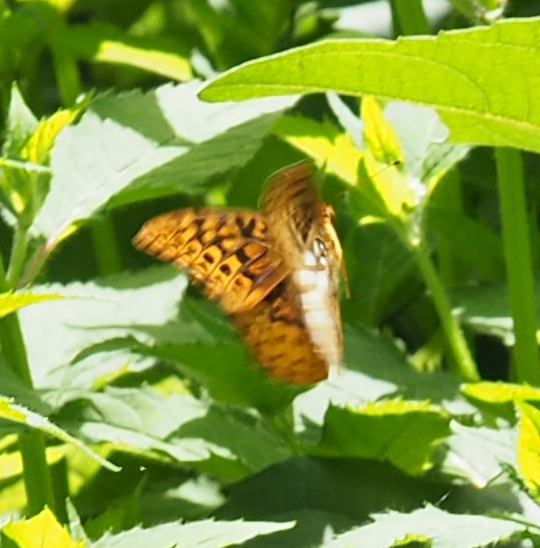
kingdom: Animalia
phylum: Arthropoda
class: Insecta
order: Lepidoptera
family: Nymphalidae
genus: Speyeria
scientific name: Speyeria cybele
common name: Great spangled fritillary
